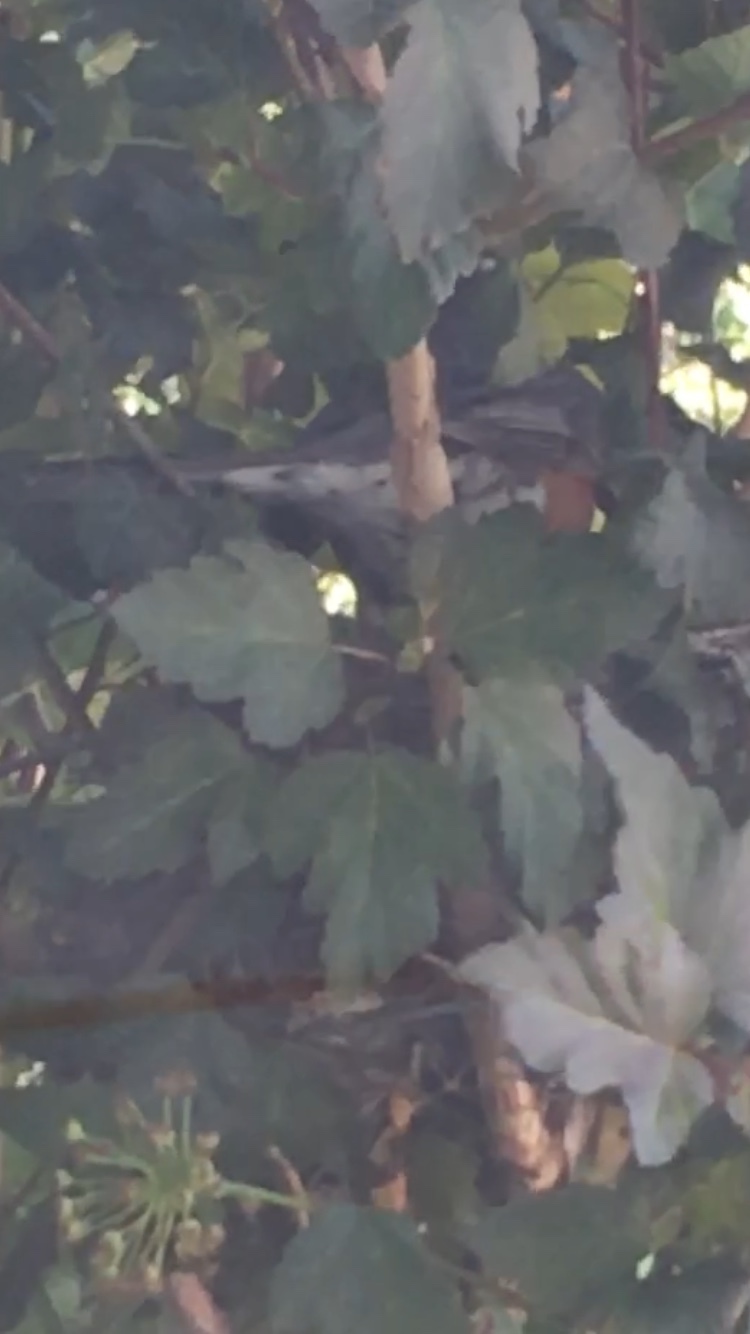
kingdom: Animalia
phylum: Chordata
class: Aves
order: Passeriformes
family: Turdidae
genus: Turdus
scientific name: Turdus migratorius
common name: American robin
